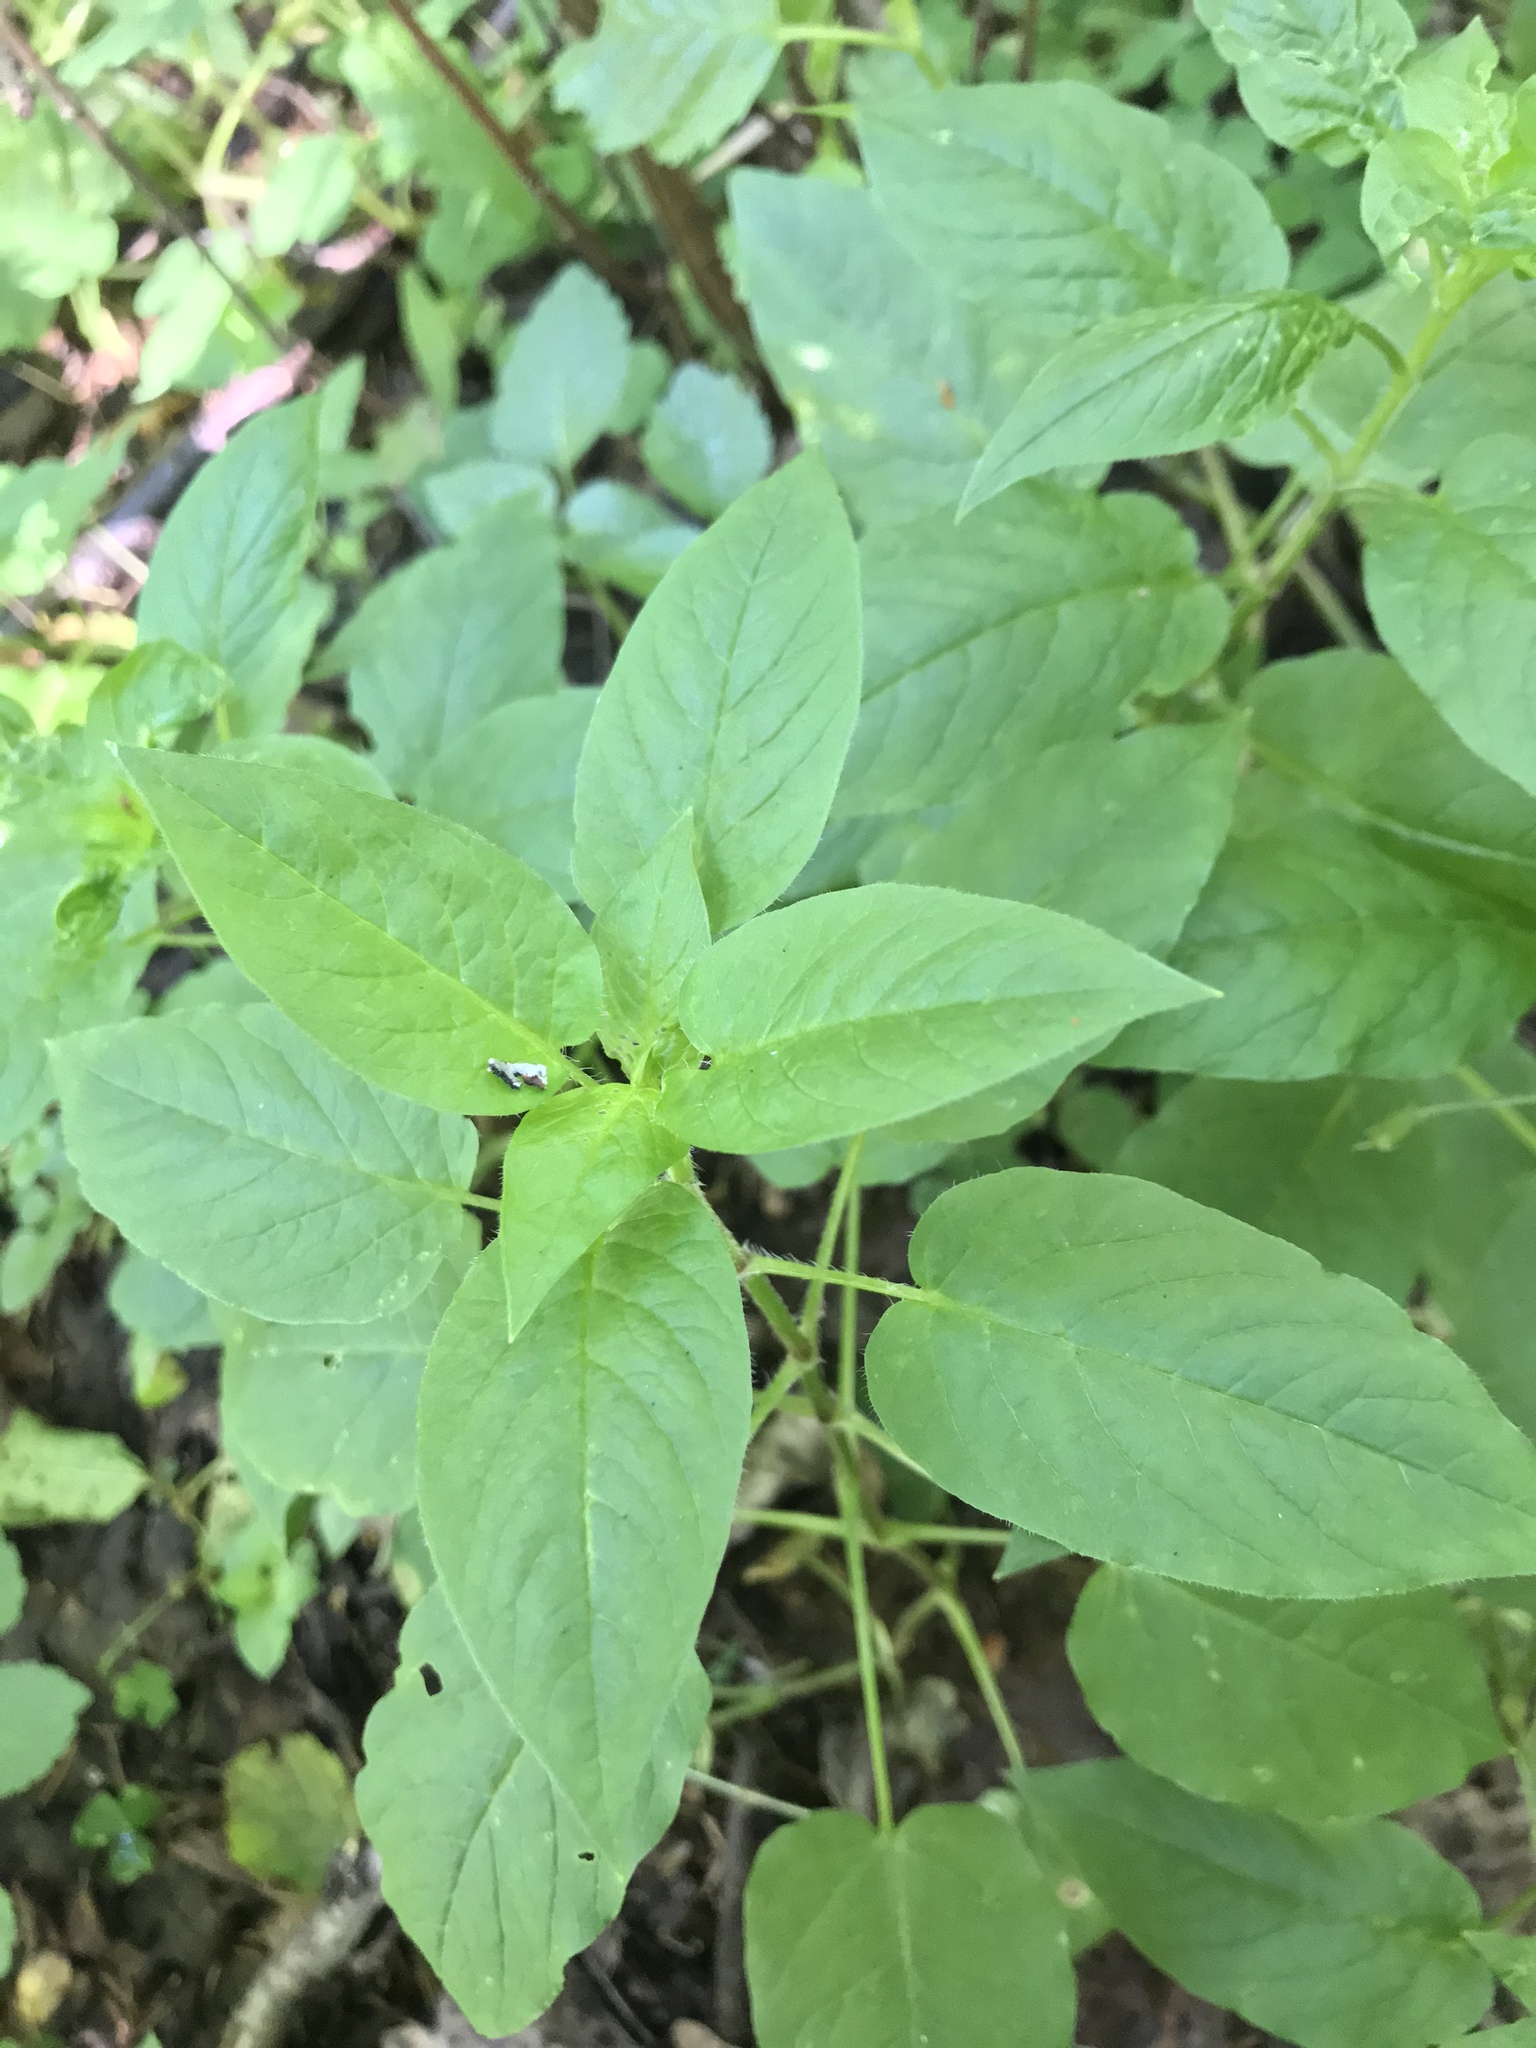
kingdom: Plantae
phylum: Tracheophyta
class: Magnoliopsida
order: Caryophyllales
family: Caryophyllaceae
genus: Stellaria
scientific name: Stellaria nemorum
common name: Wood stitchwort
